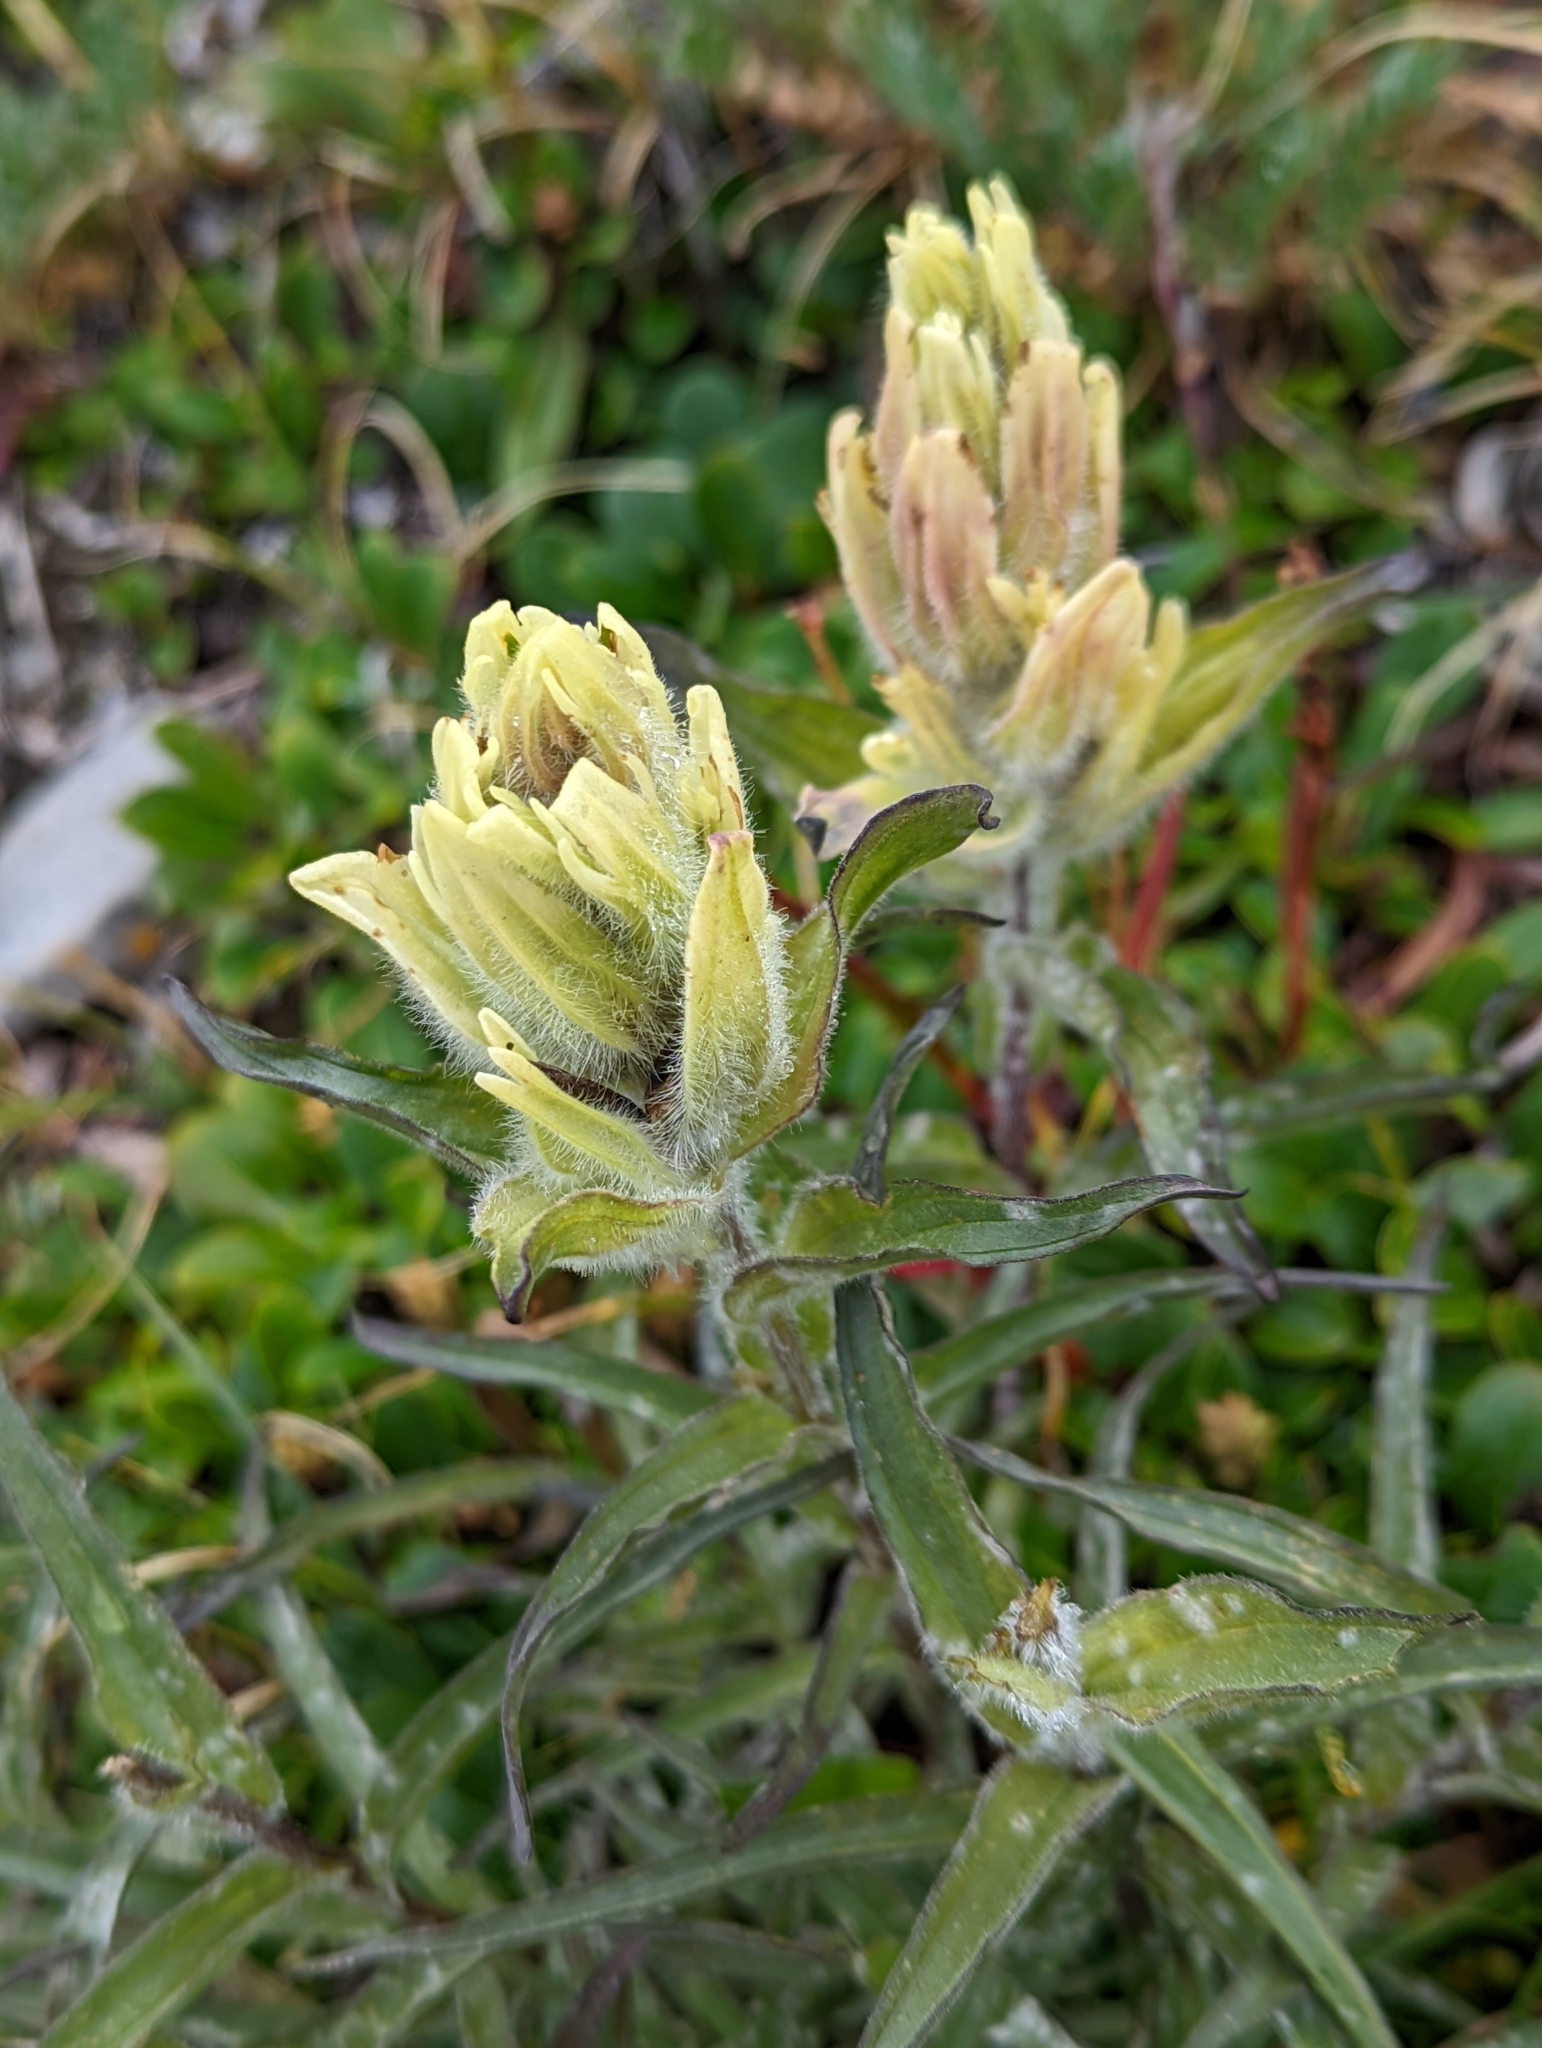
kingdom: Plantae
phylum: Tracheophyta
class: Magnoliopsida
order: Lamiales
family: Orobanchaceae
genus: Castilleja
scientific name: Castilleja occidentalis
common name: Western paintbrush
